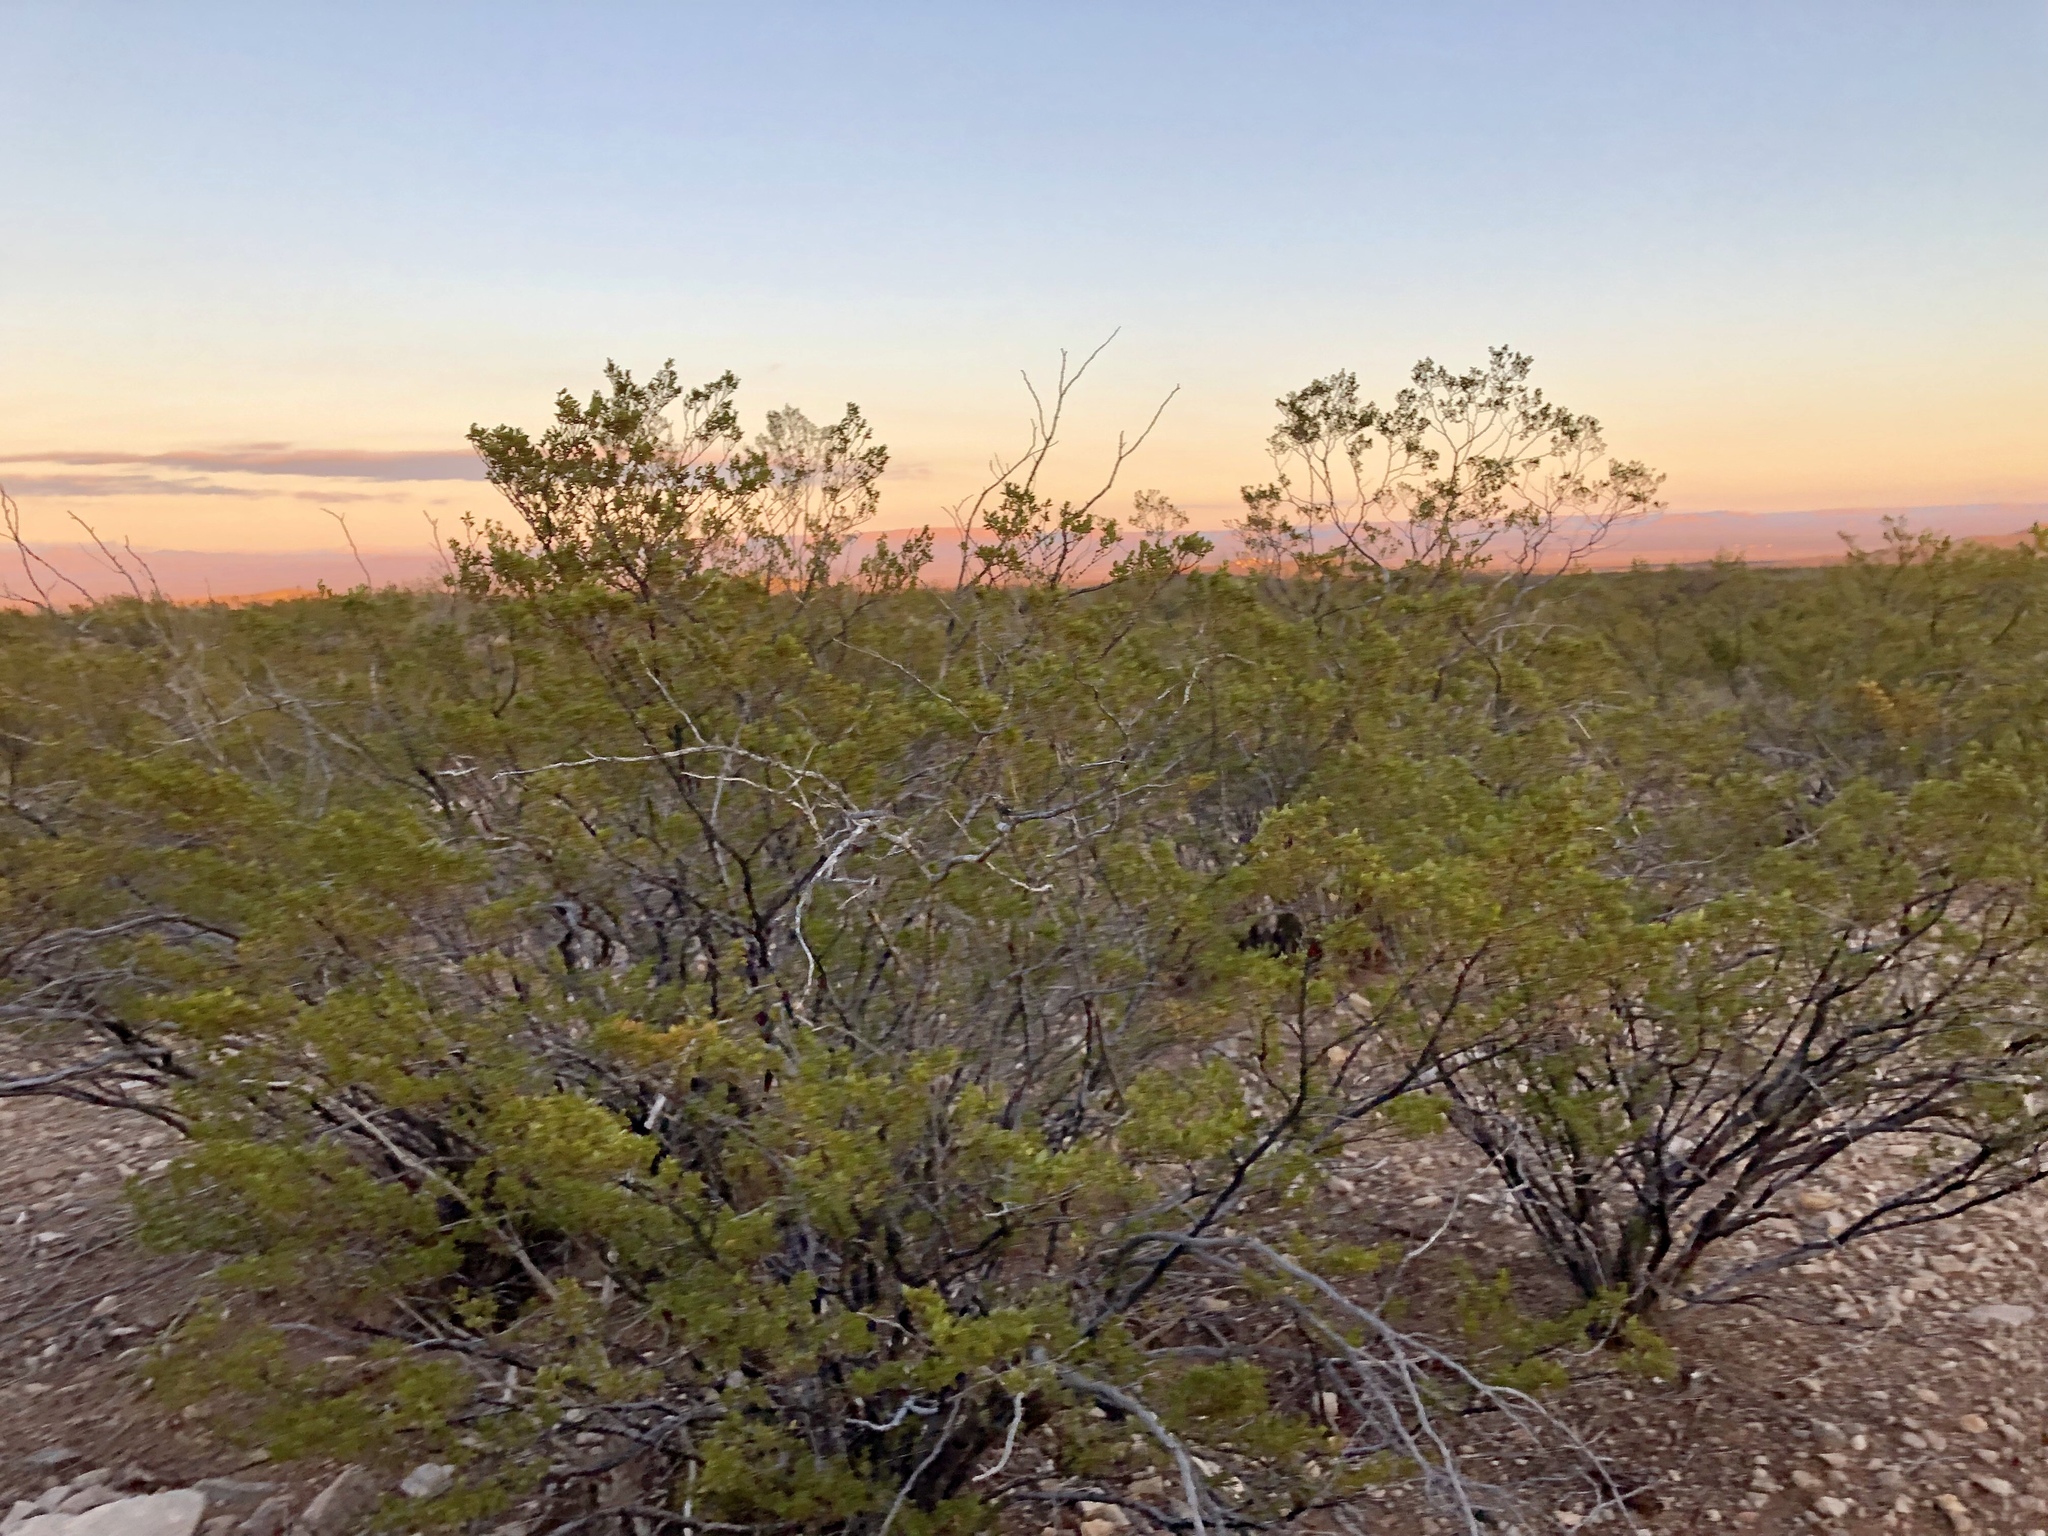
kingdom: Plantae
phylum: Tracheophyta
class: Magnoliopsida
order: Zygophyllales
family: Zygophyllaceae
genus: Larrea
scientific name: Larrea tridentata
